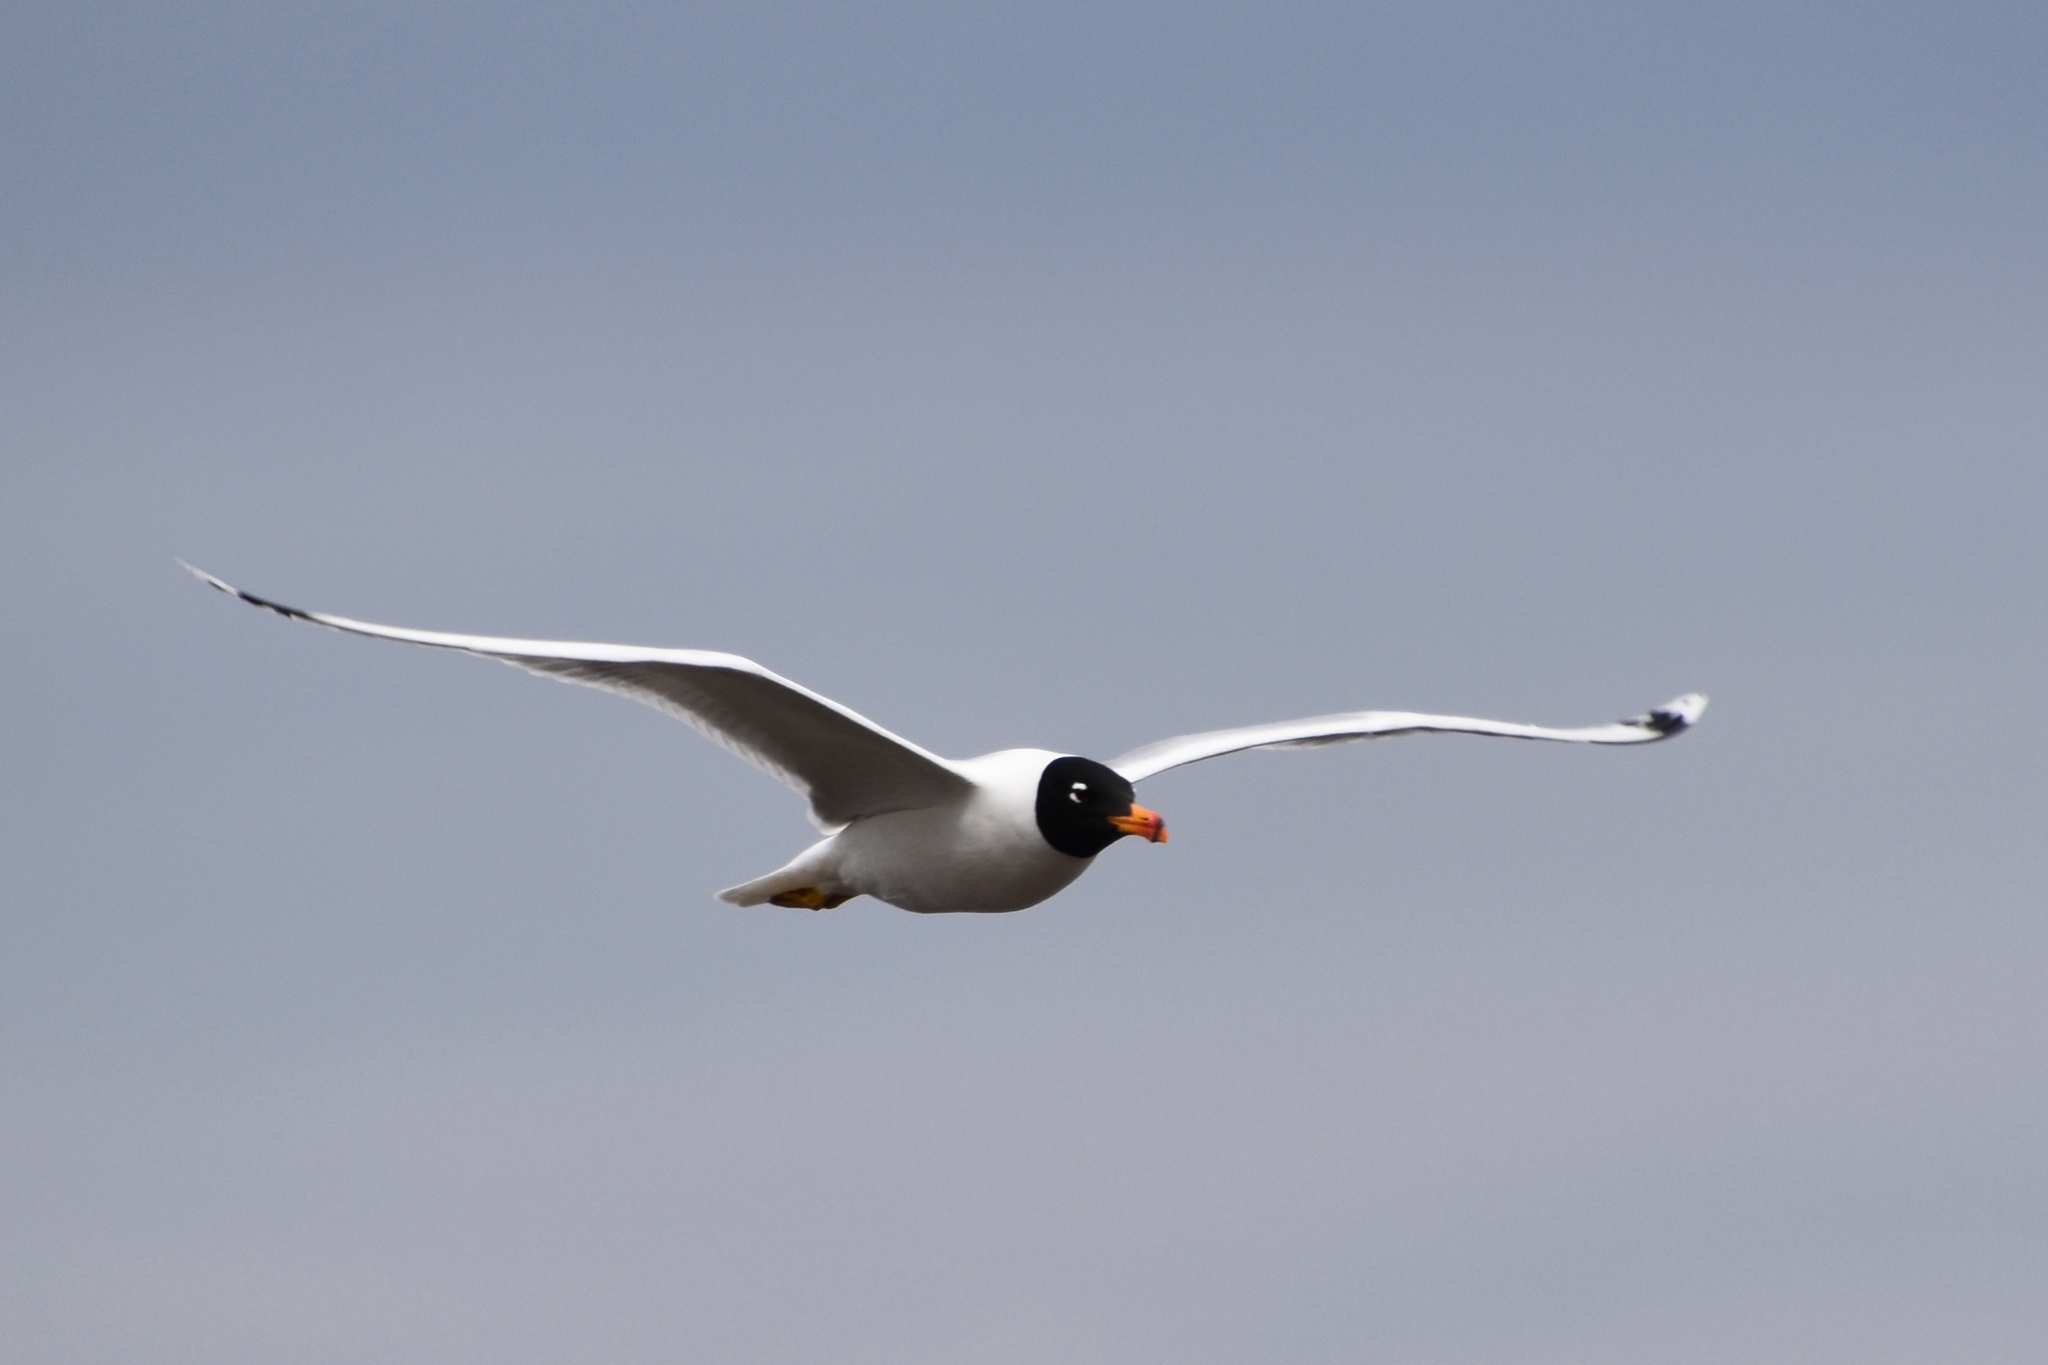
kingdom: Animalia
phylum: Chordata
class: Aves
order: Charadriiformes
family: Laridae
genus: Ichthyaetus
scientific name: Ichthyaetus ichthyaetus
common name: Pallas's gull
